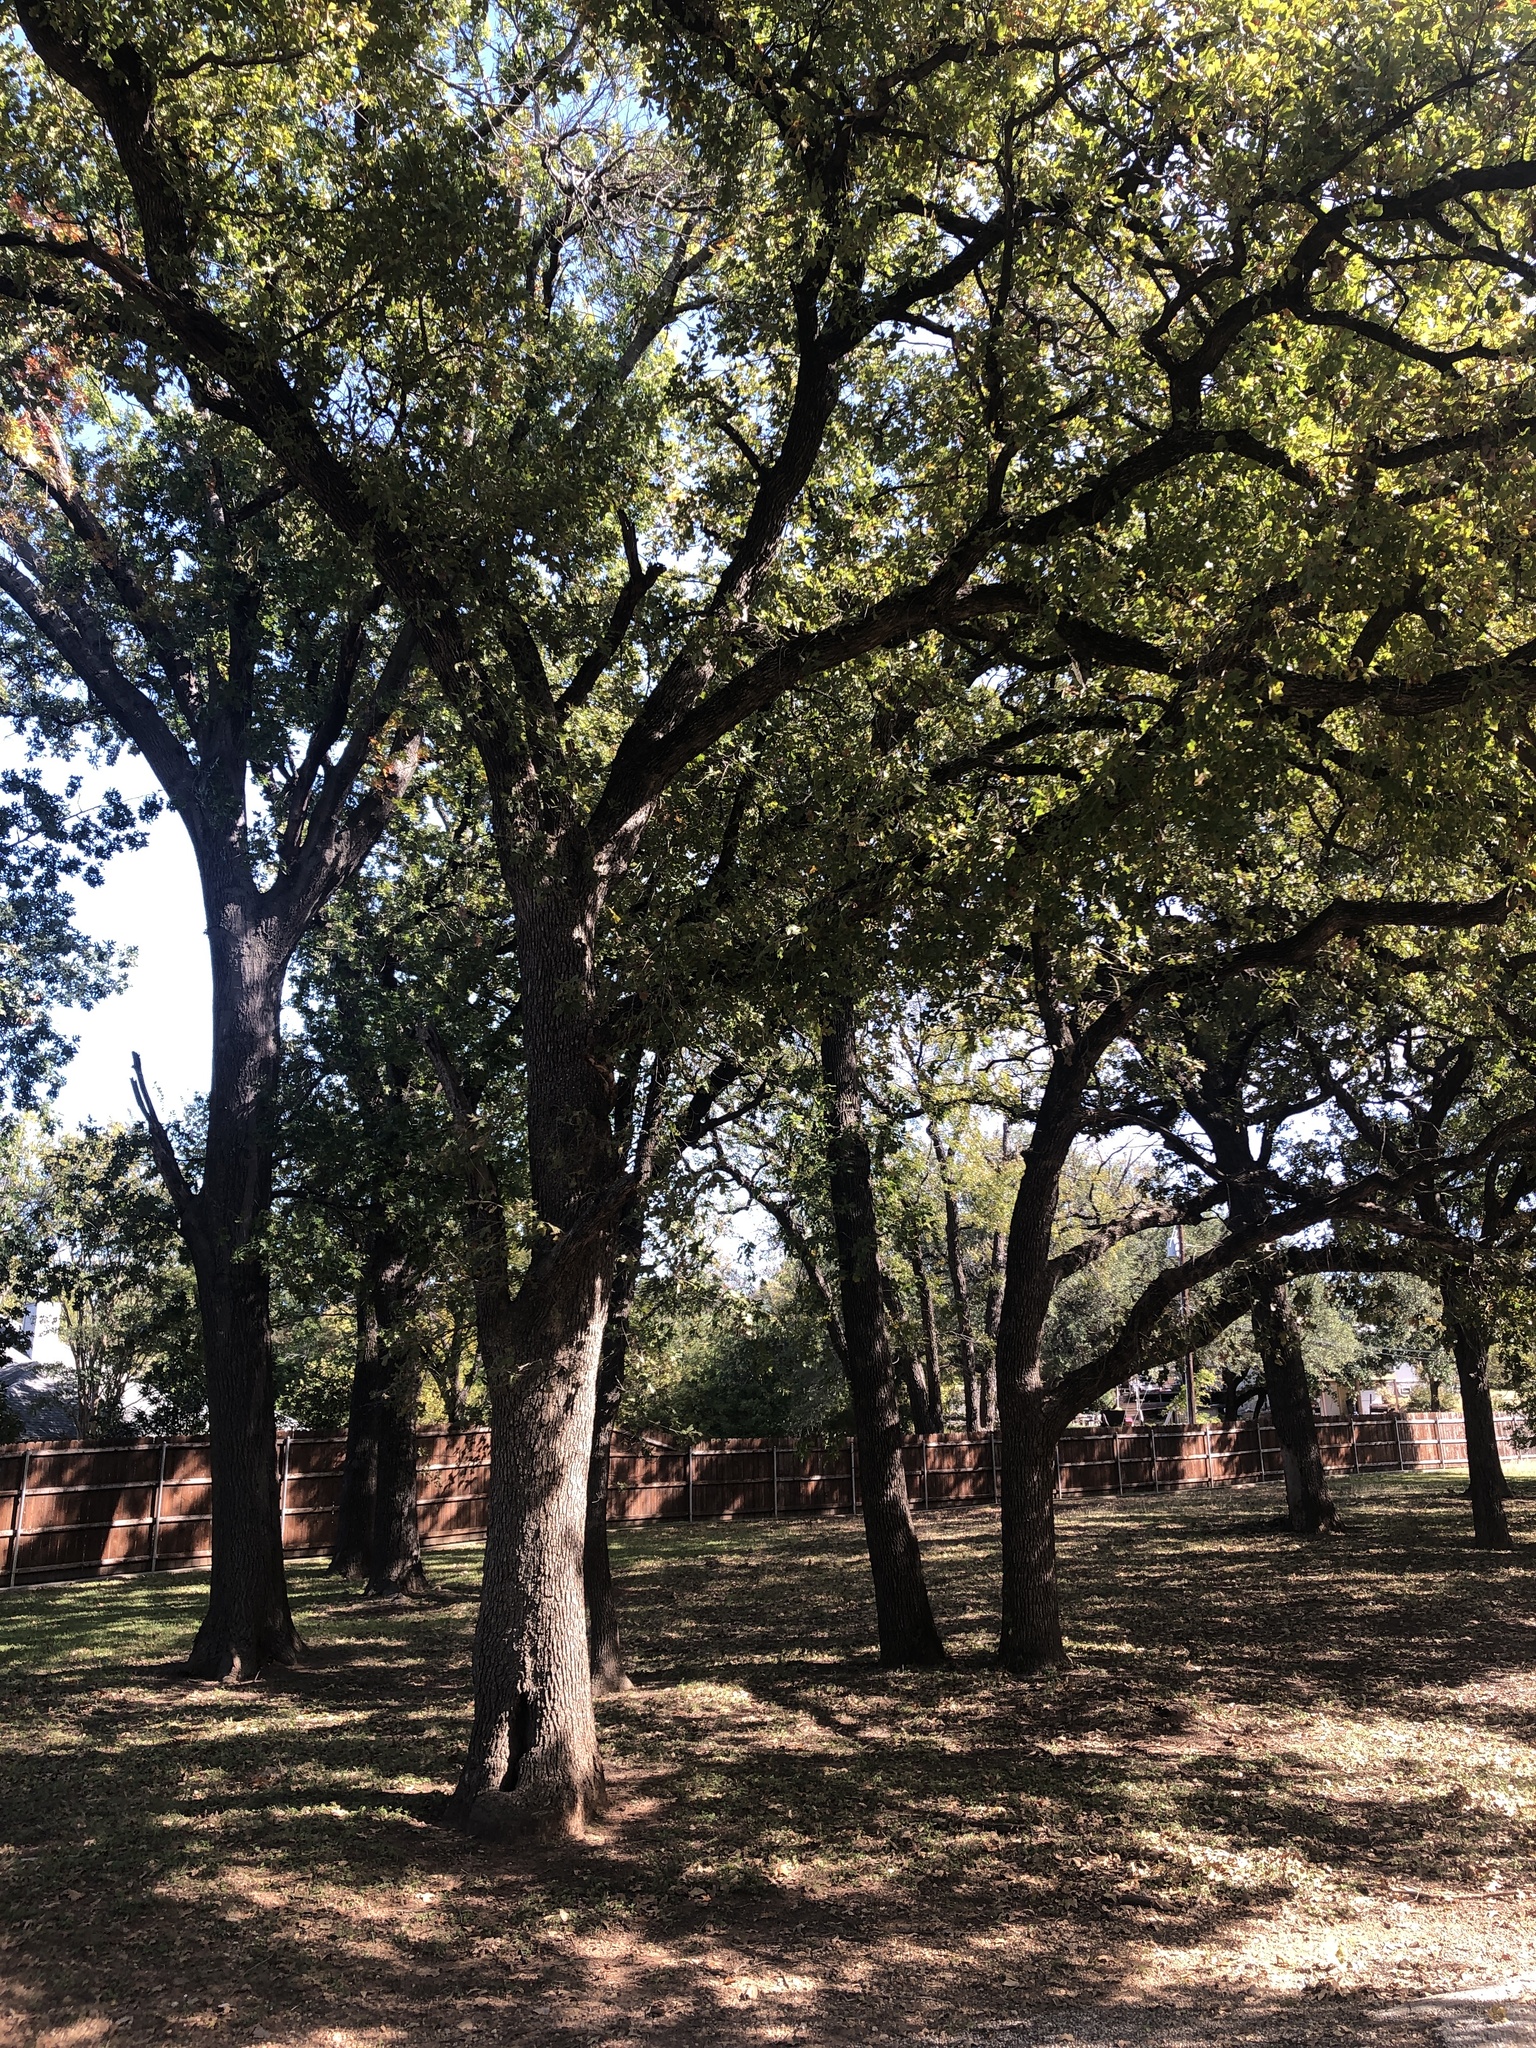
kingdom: Plantae
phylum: Tracheophyta
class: Magnoliopsida
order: Fagales
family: Fagaceae
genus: Quercus
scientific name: Quercus stellata
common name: Post oak
